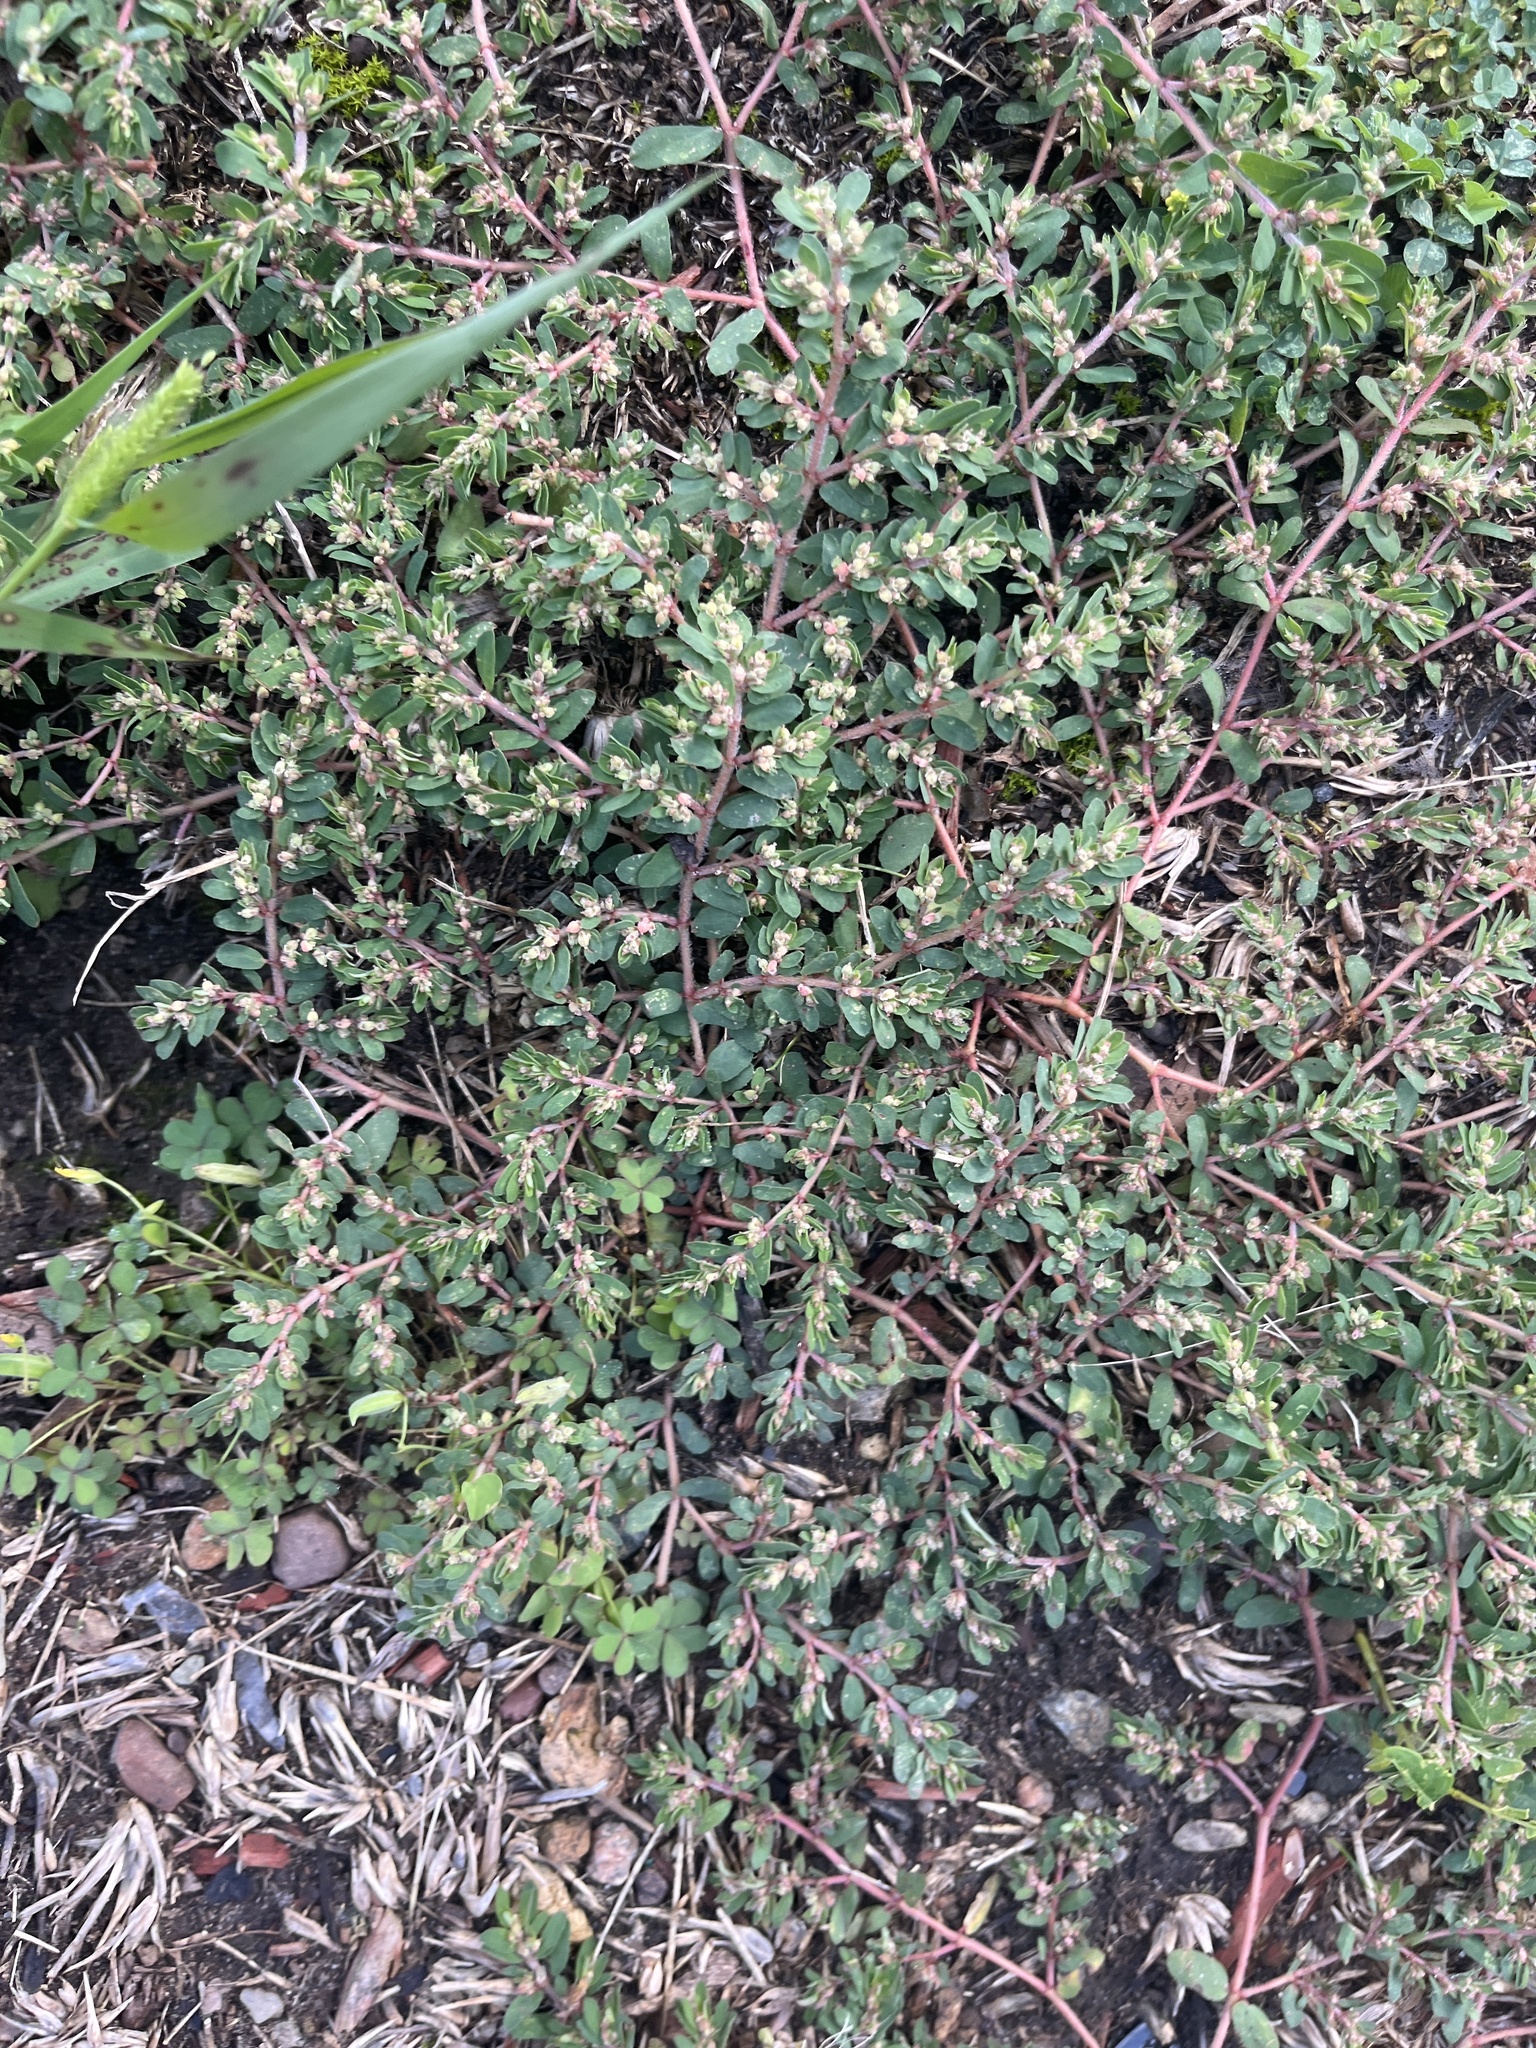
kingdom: Plantae
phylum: Tracheophyta
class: Magnoliopsida
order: Malpighiales
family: Euphorbiaceae
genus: Euphorbia
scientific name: Euphorbia maculata
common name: Spotted spurge
